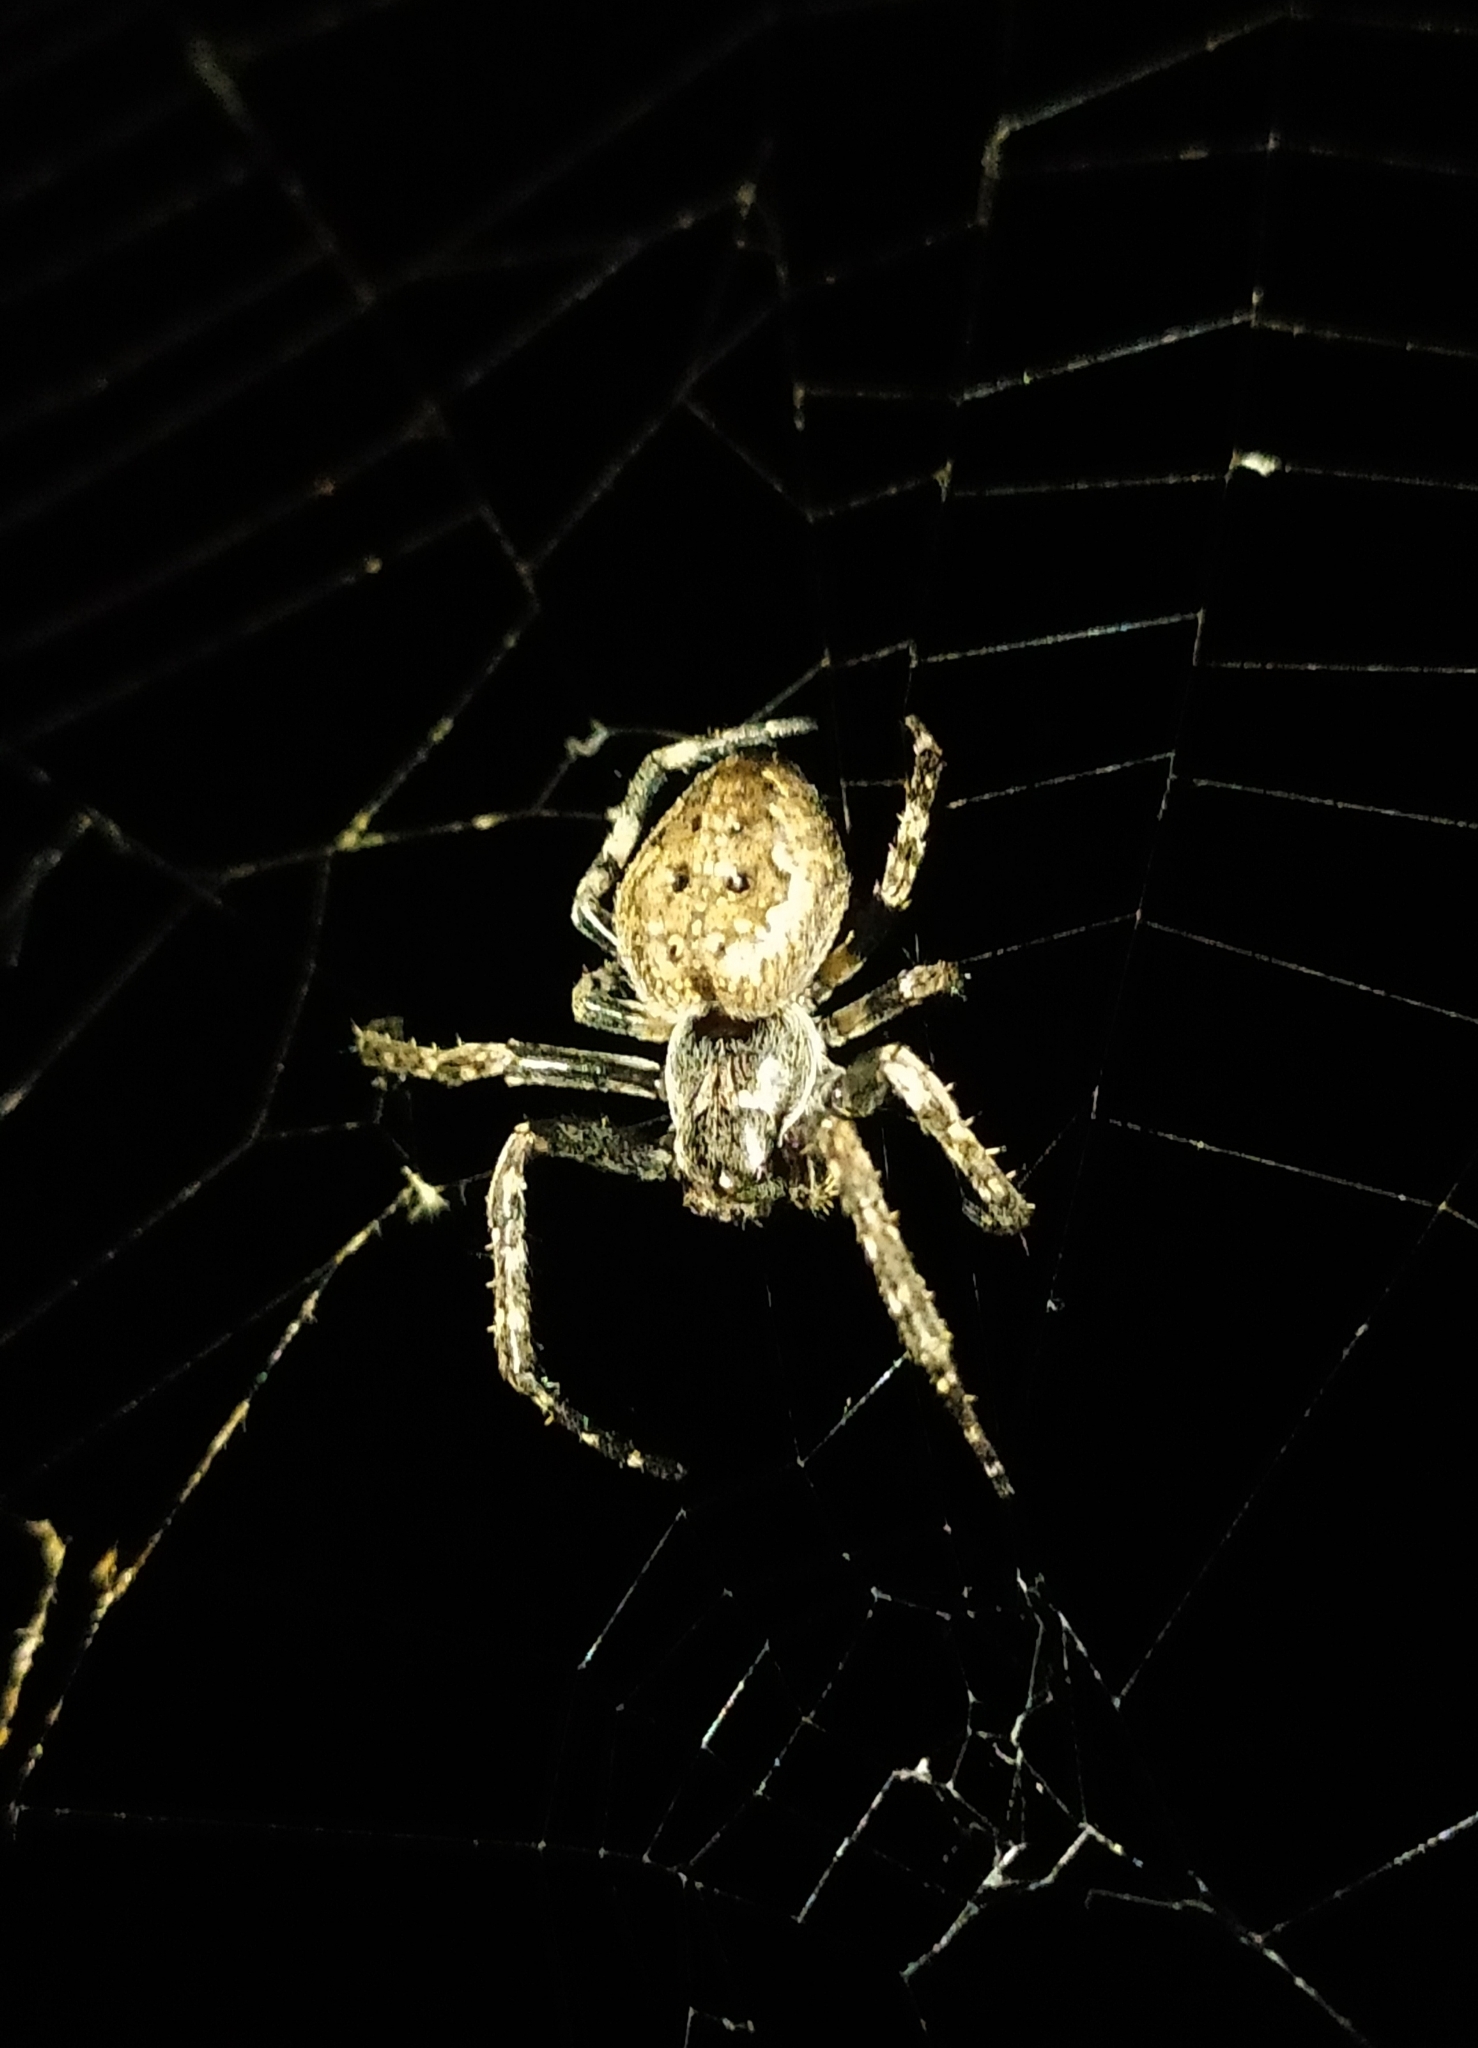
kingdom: Animalia
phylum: Arthropoda
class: Arachnida
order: Araneae
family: Araneidae
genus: Nuctenea
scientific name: Nuctenea umbratica
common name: Toad spider
